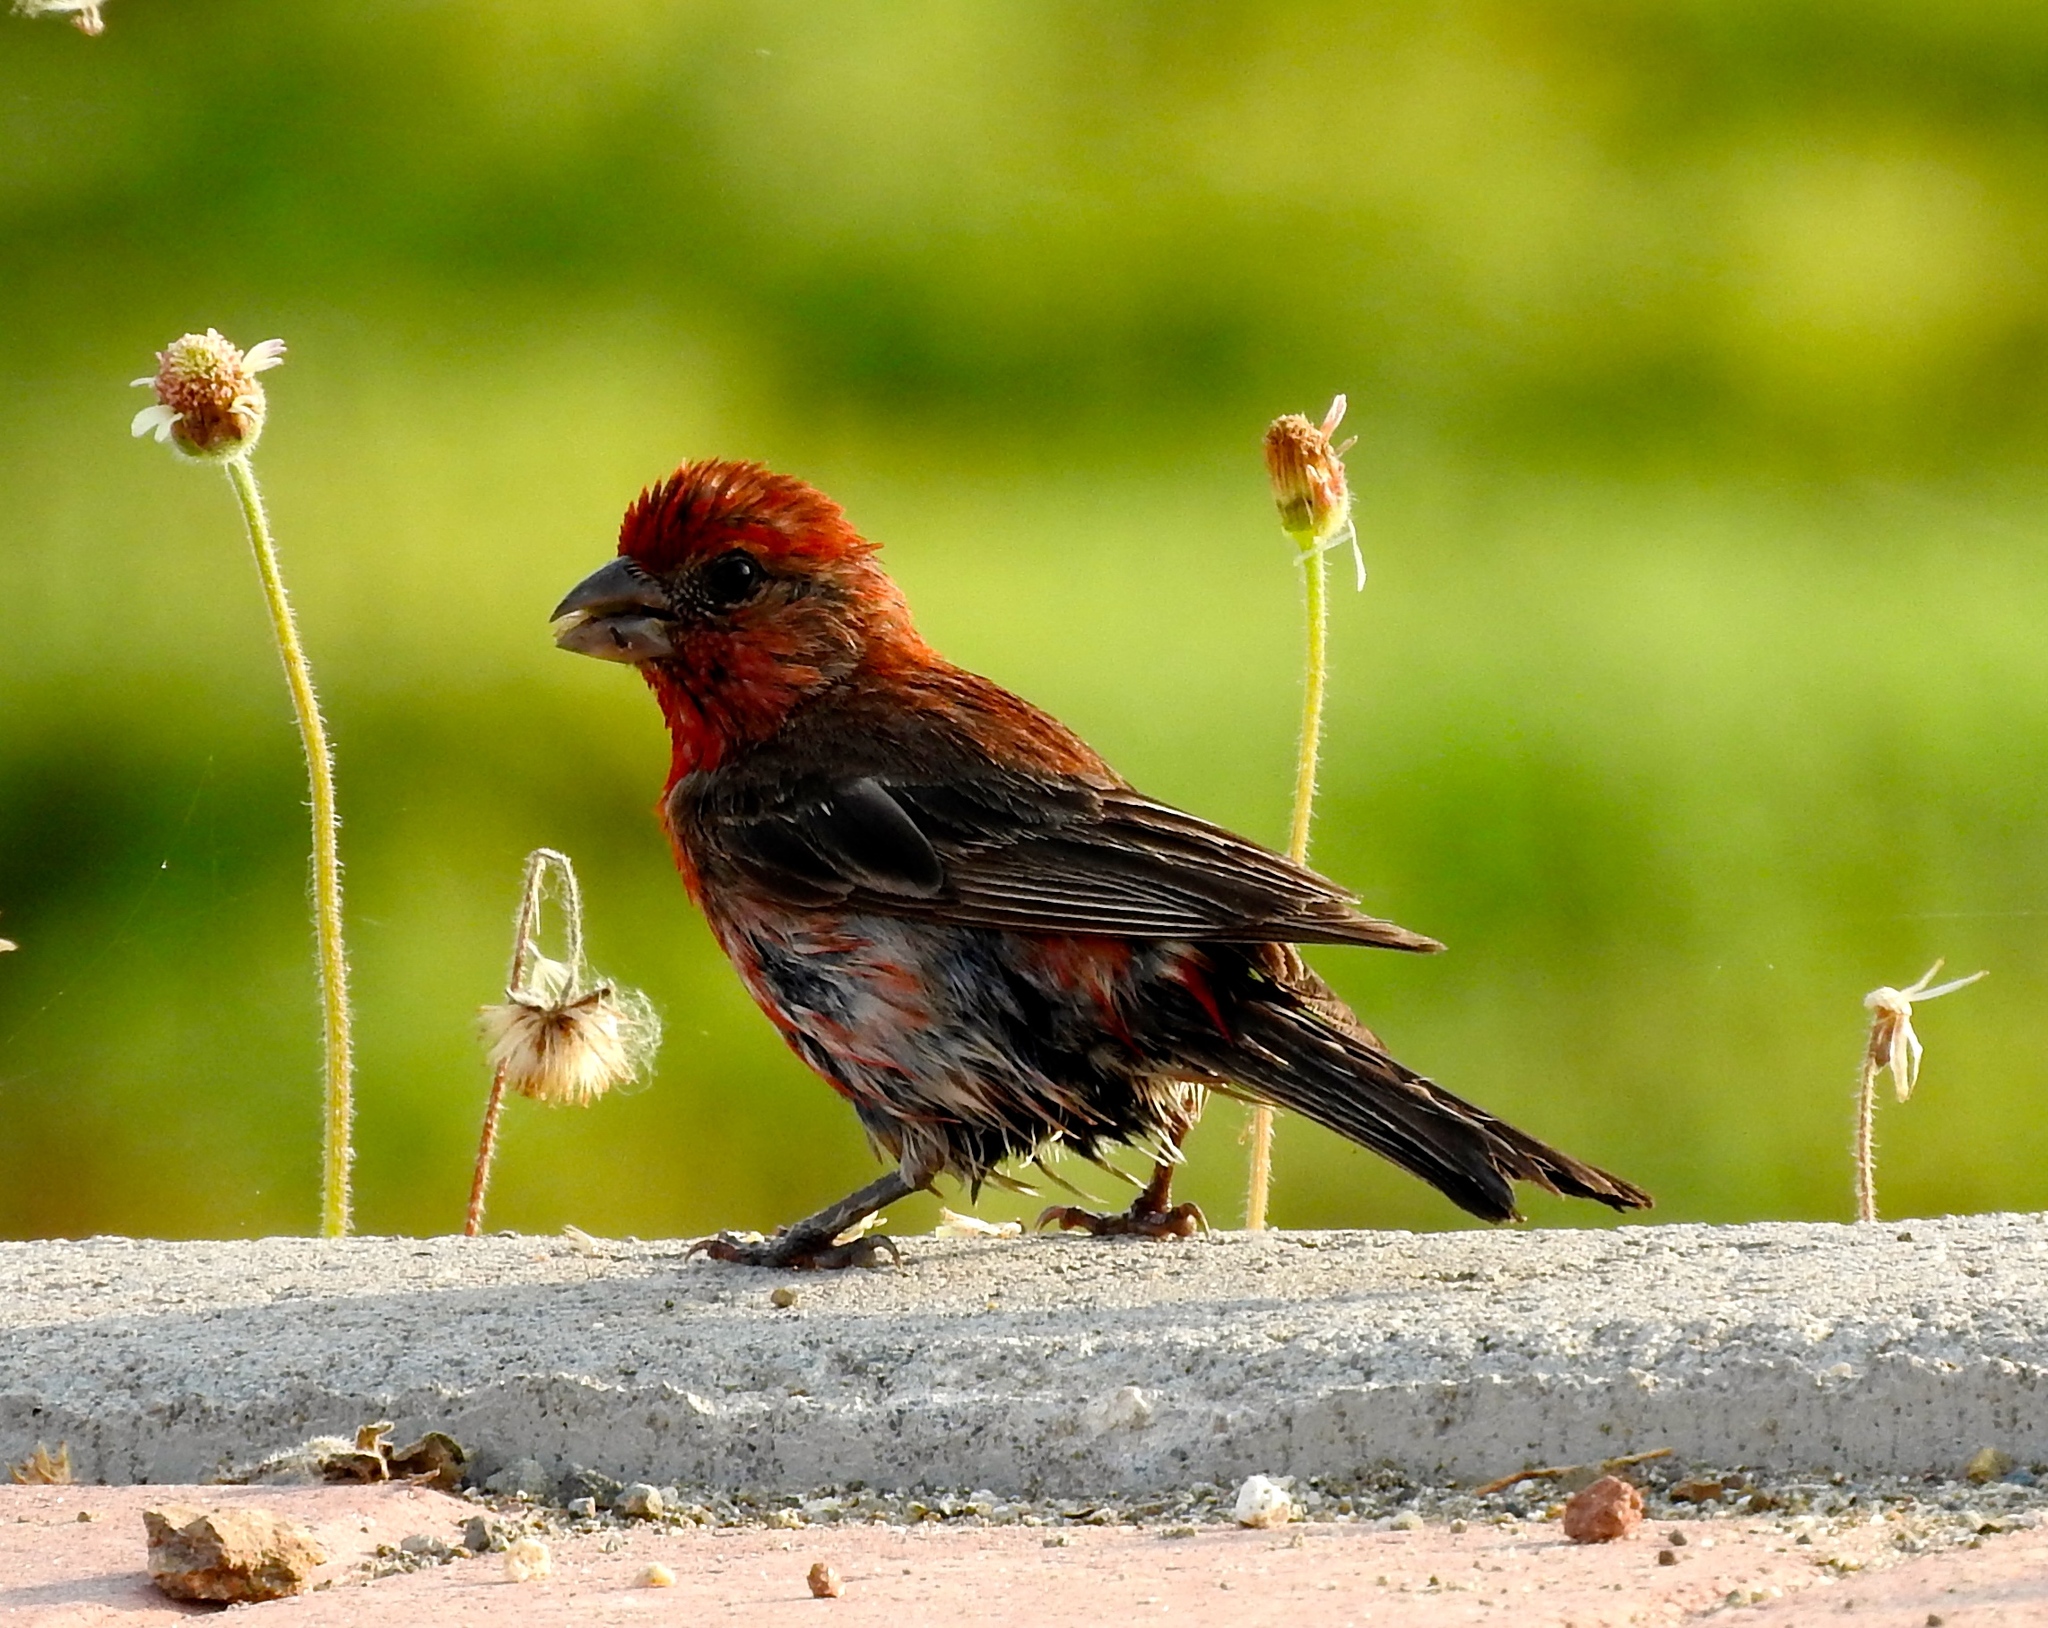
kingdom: Animalia
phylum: Chordata
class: Aves
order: Passeriformes
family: Fringillidae
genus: Haemorhous
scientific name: Haemorhous mexicanus
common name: House finch
